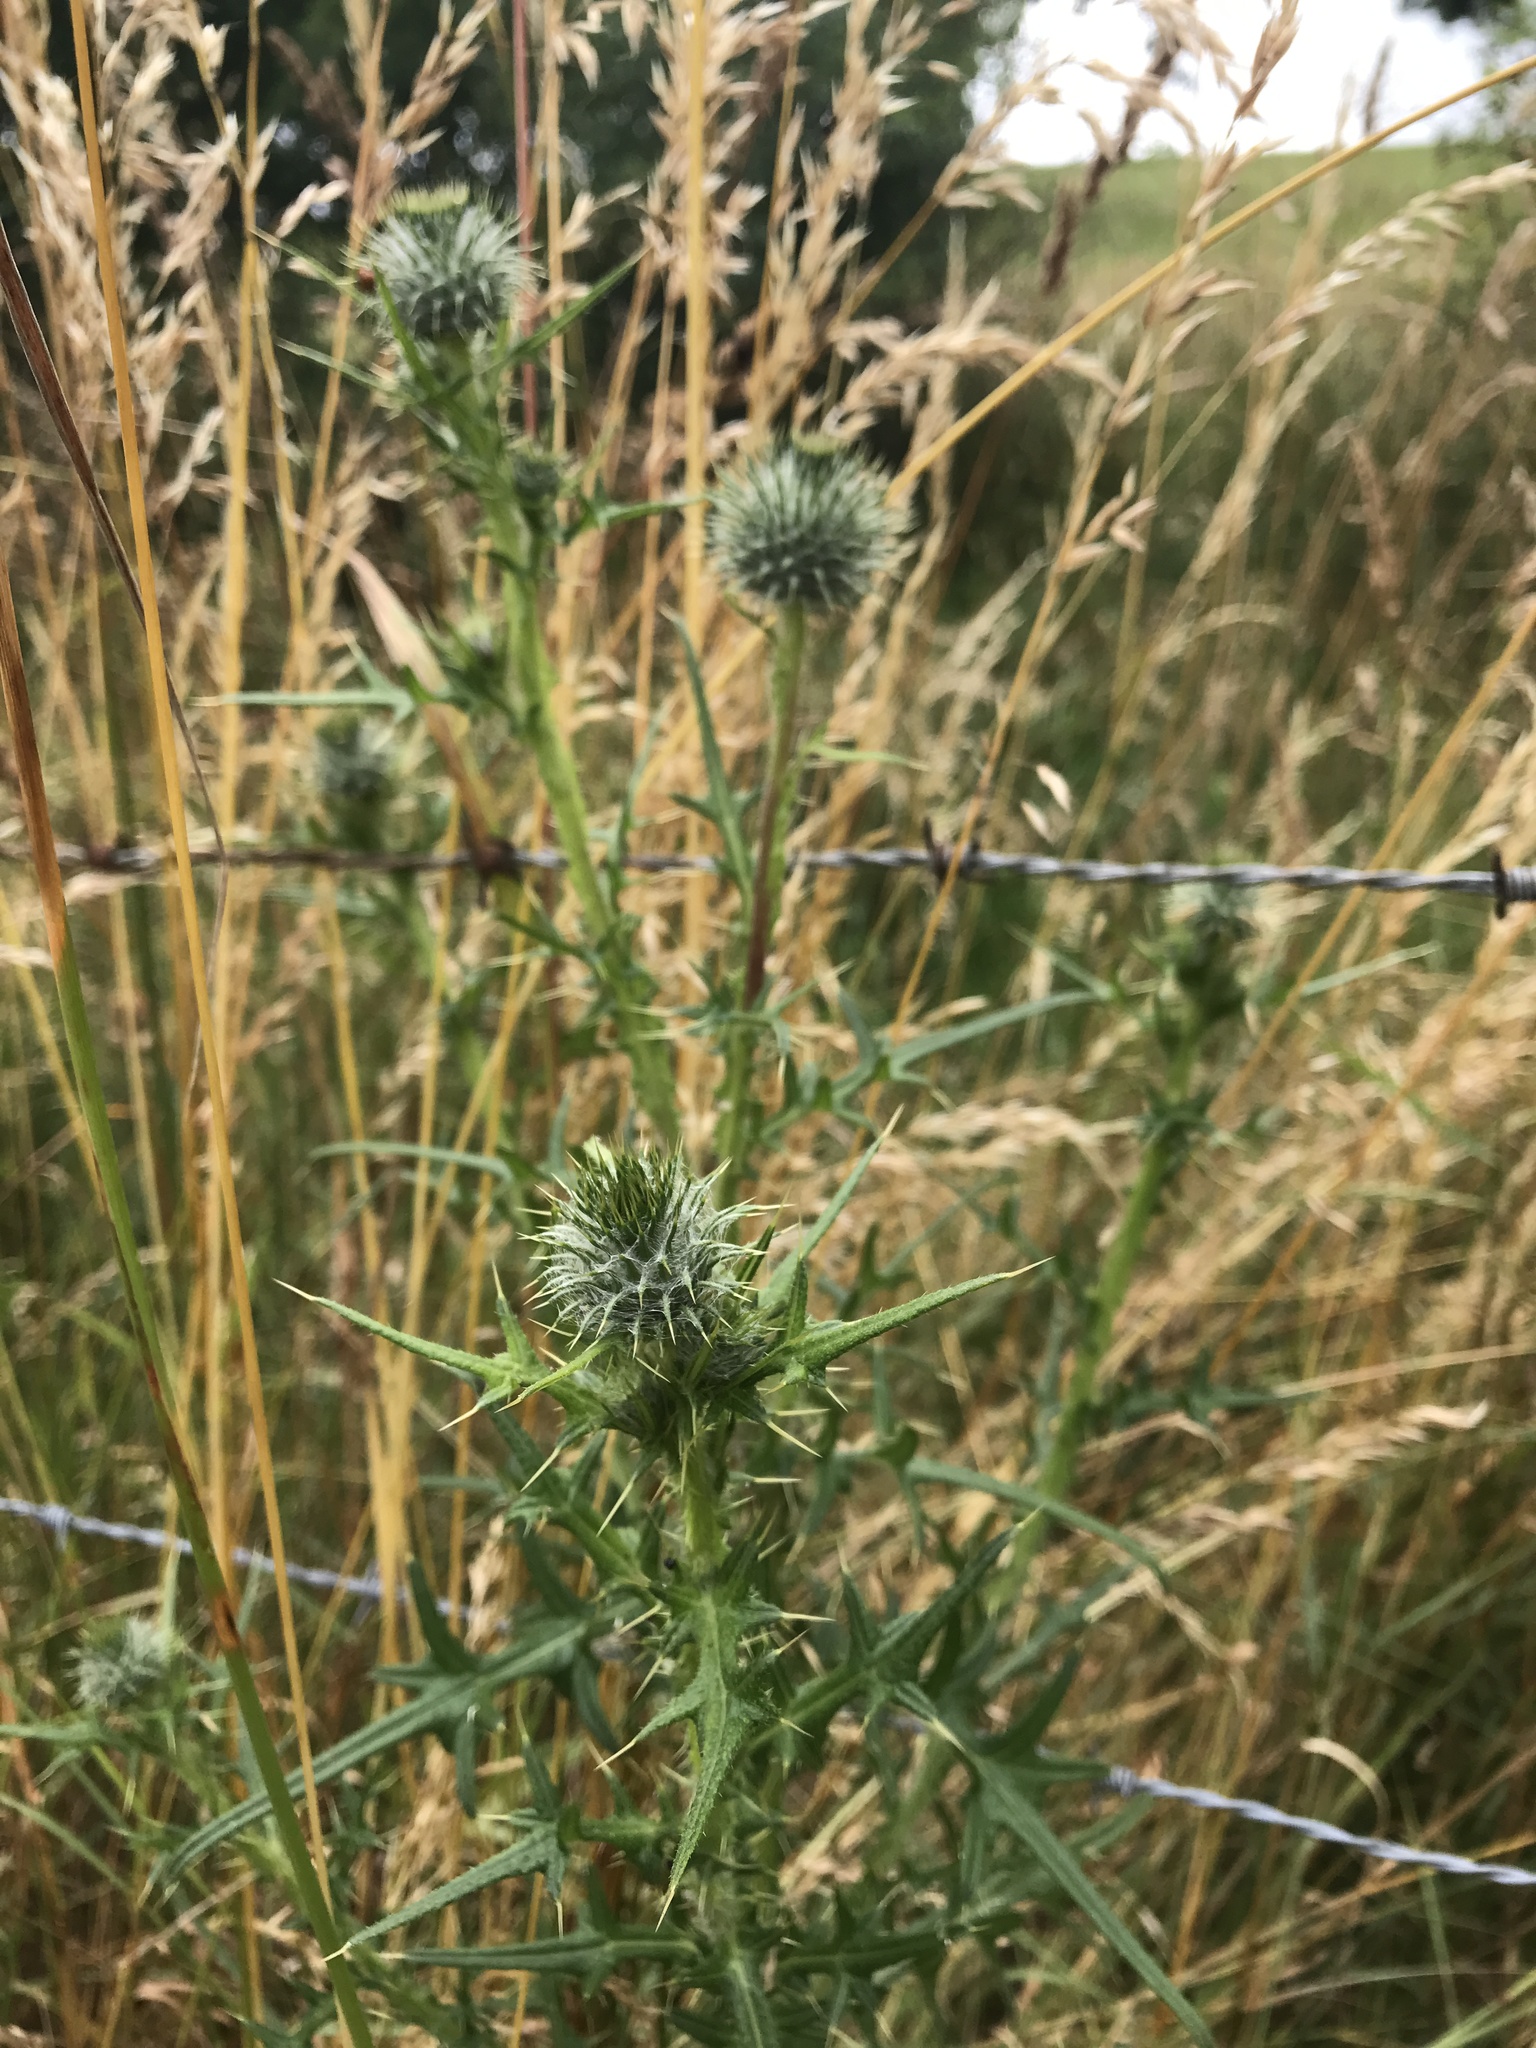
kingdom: Plantae
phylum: Tracheophyta
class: Magnoliopsida
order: Asterales
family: Asteraceae
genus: Cirsium
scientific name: Cirsium vulgare
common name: Bull thistle
